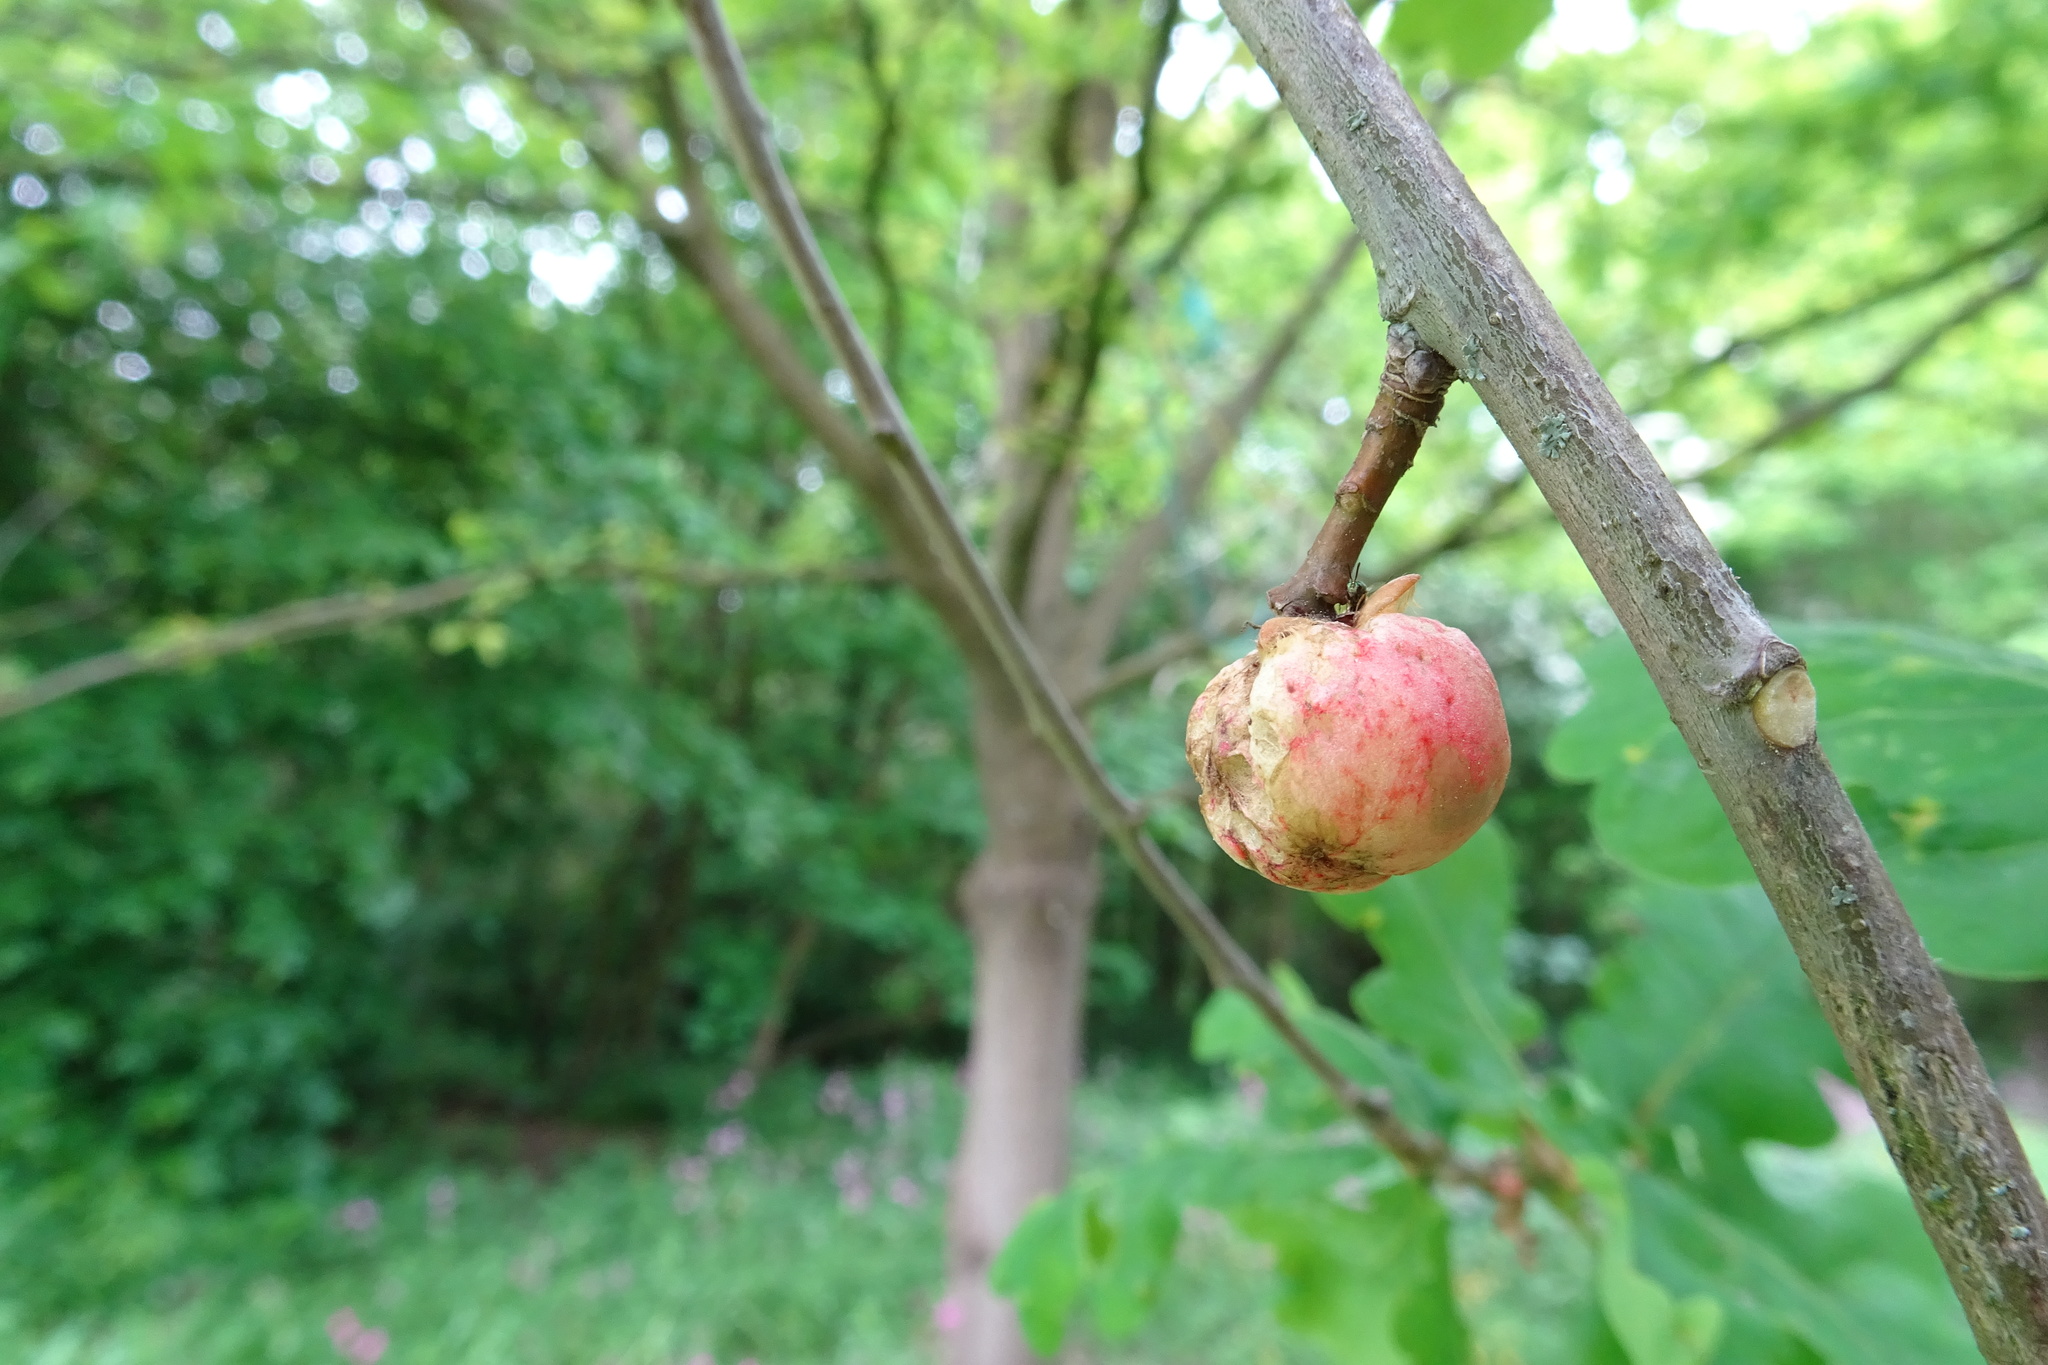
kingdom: Animalia
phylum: Arthropoda
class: Insecta
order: Hymenoptera
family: Cynipidae
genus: Biorhiza
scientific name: Biorhiza pallida
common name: Oak apple
